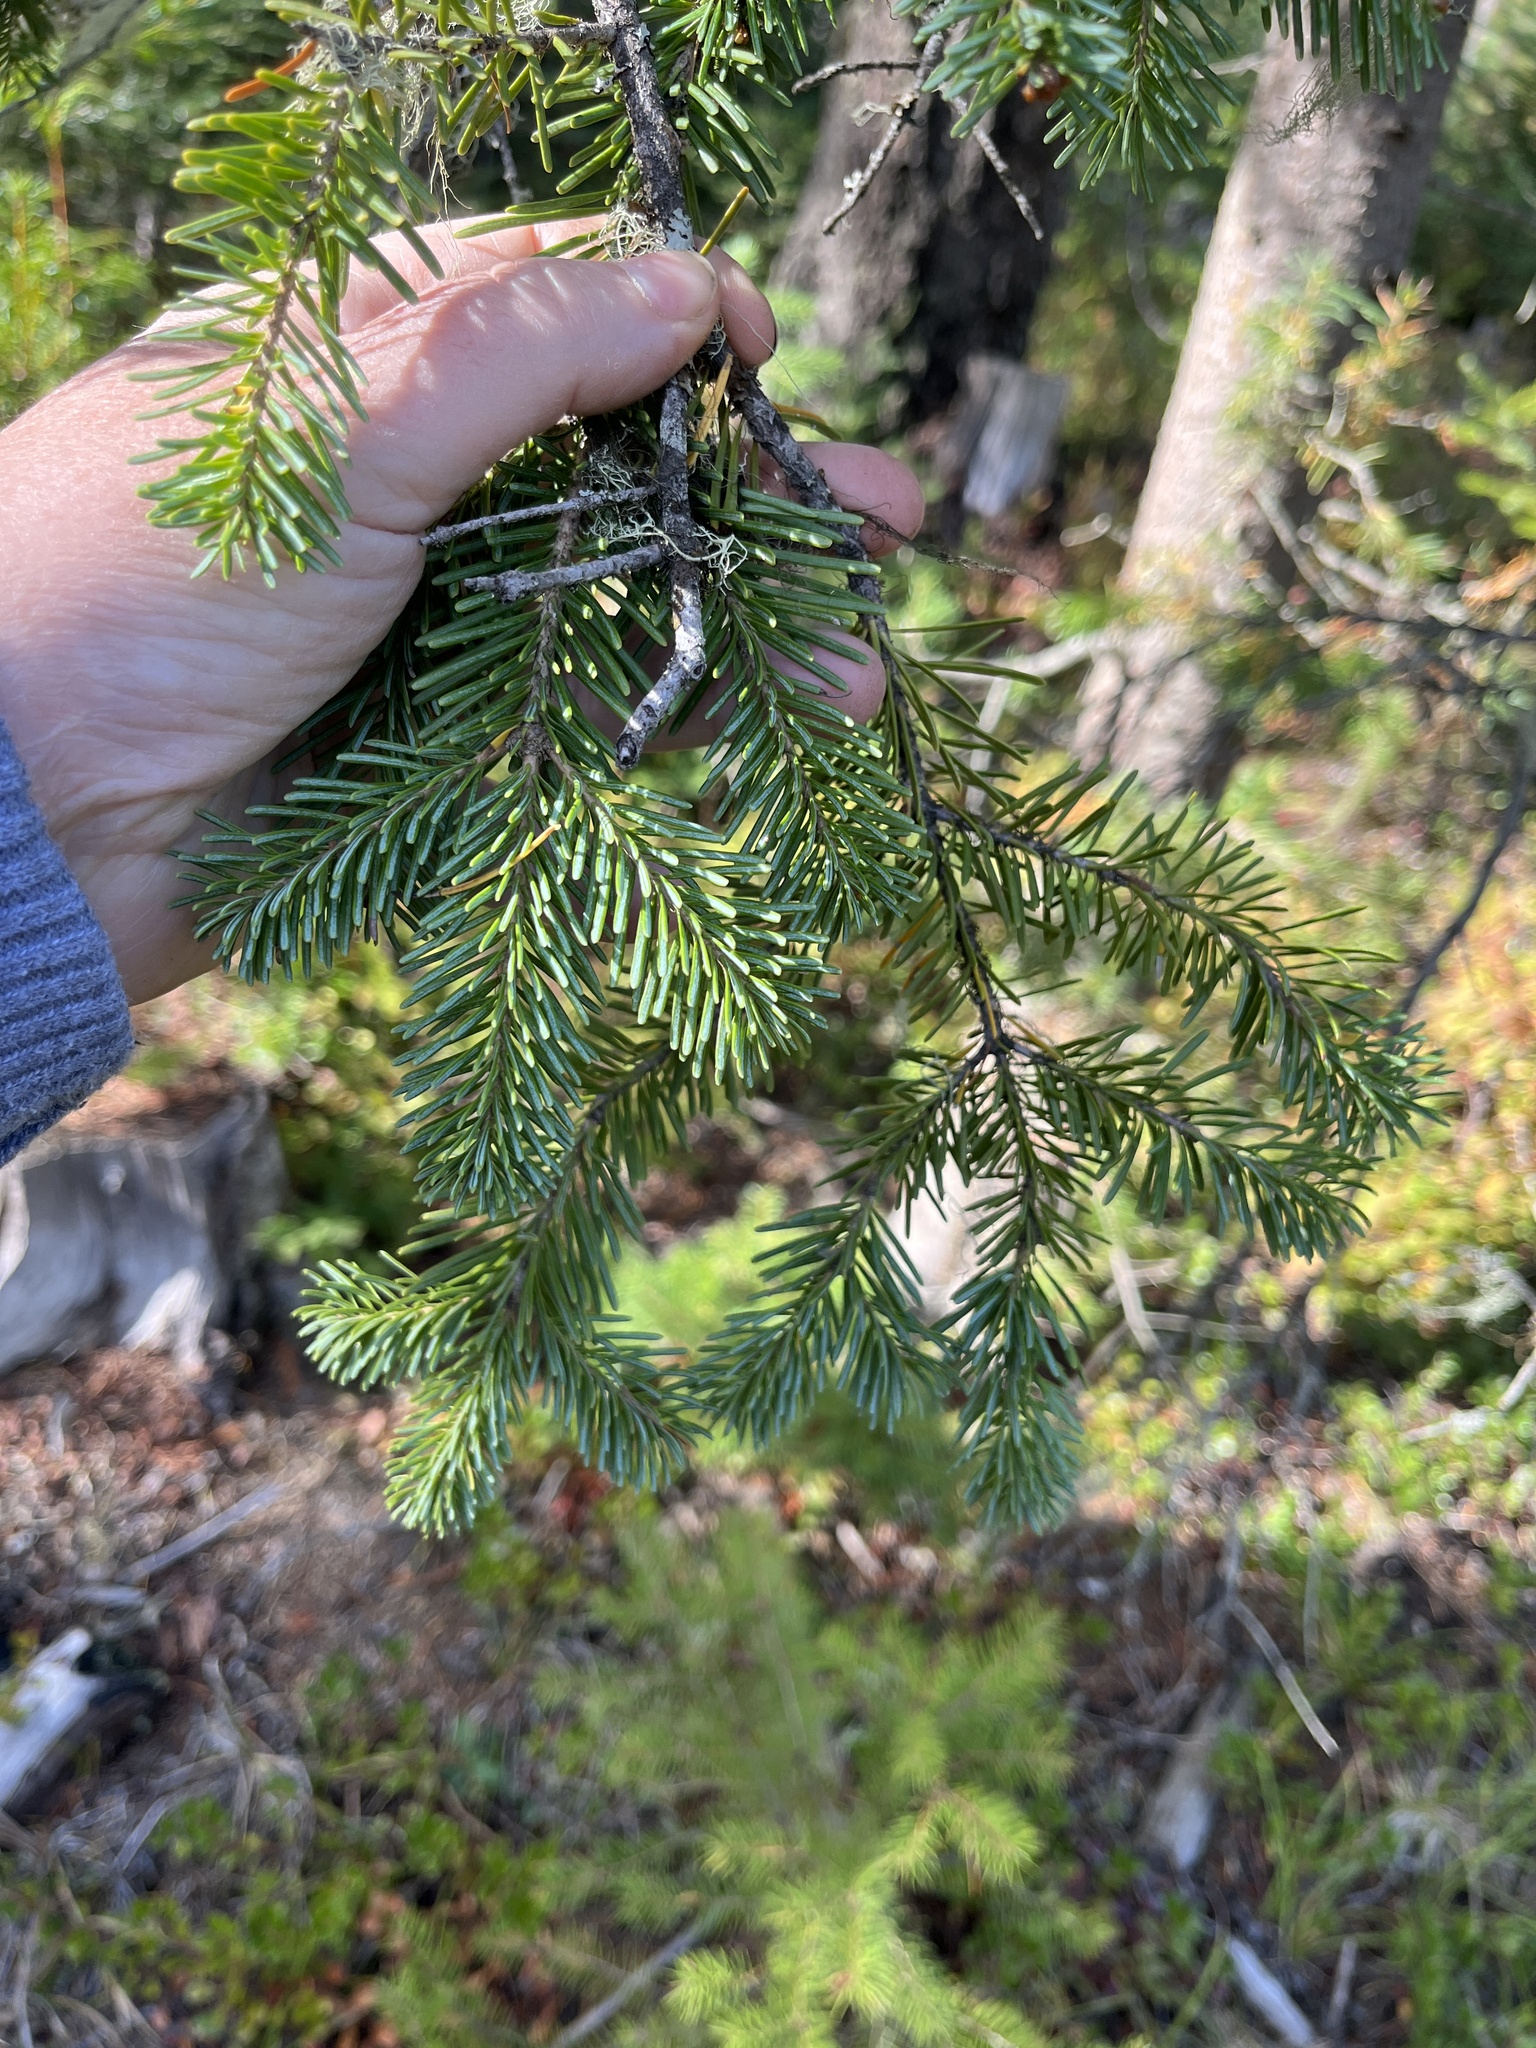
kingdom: Plantae
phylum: Tracheophyta
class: Pinopsida
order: Pinales
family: Pinaceae
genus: Abies
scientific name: Abies lasiocarpa
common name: Subalpine fir
